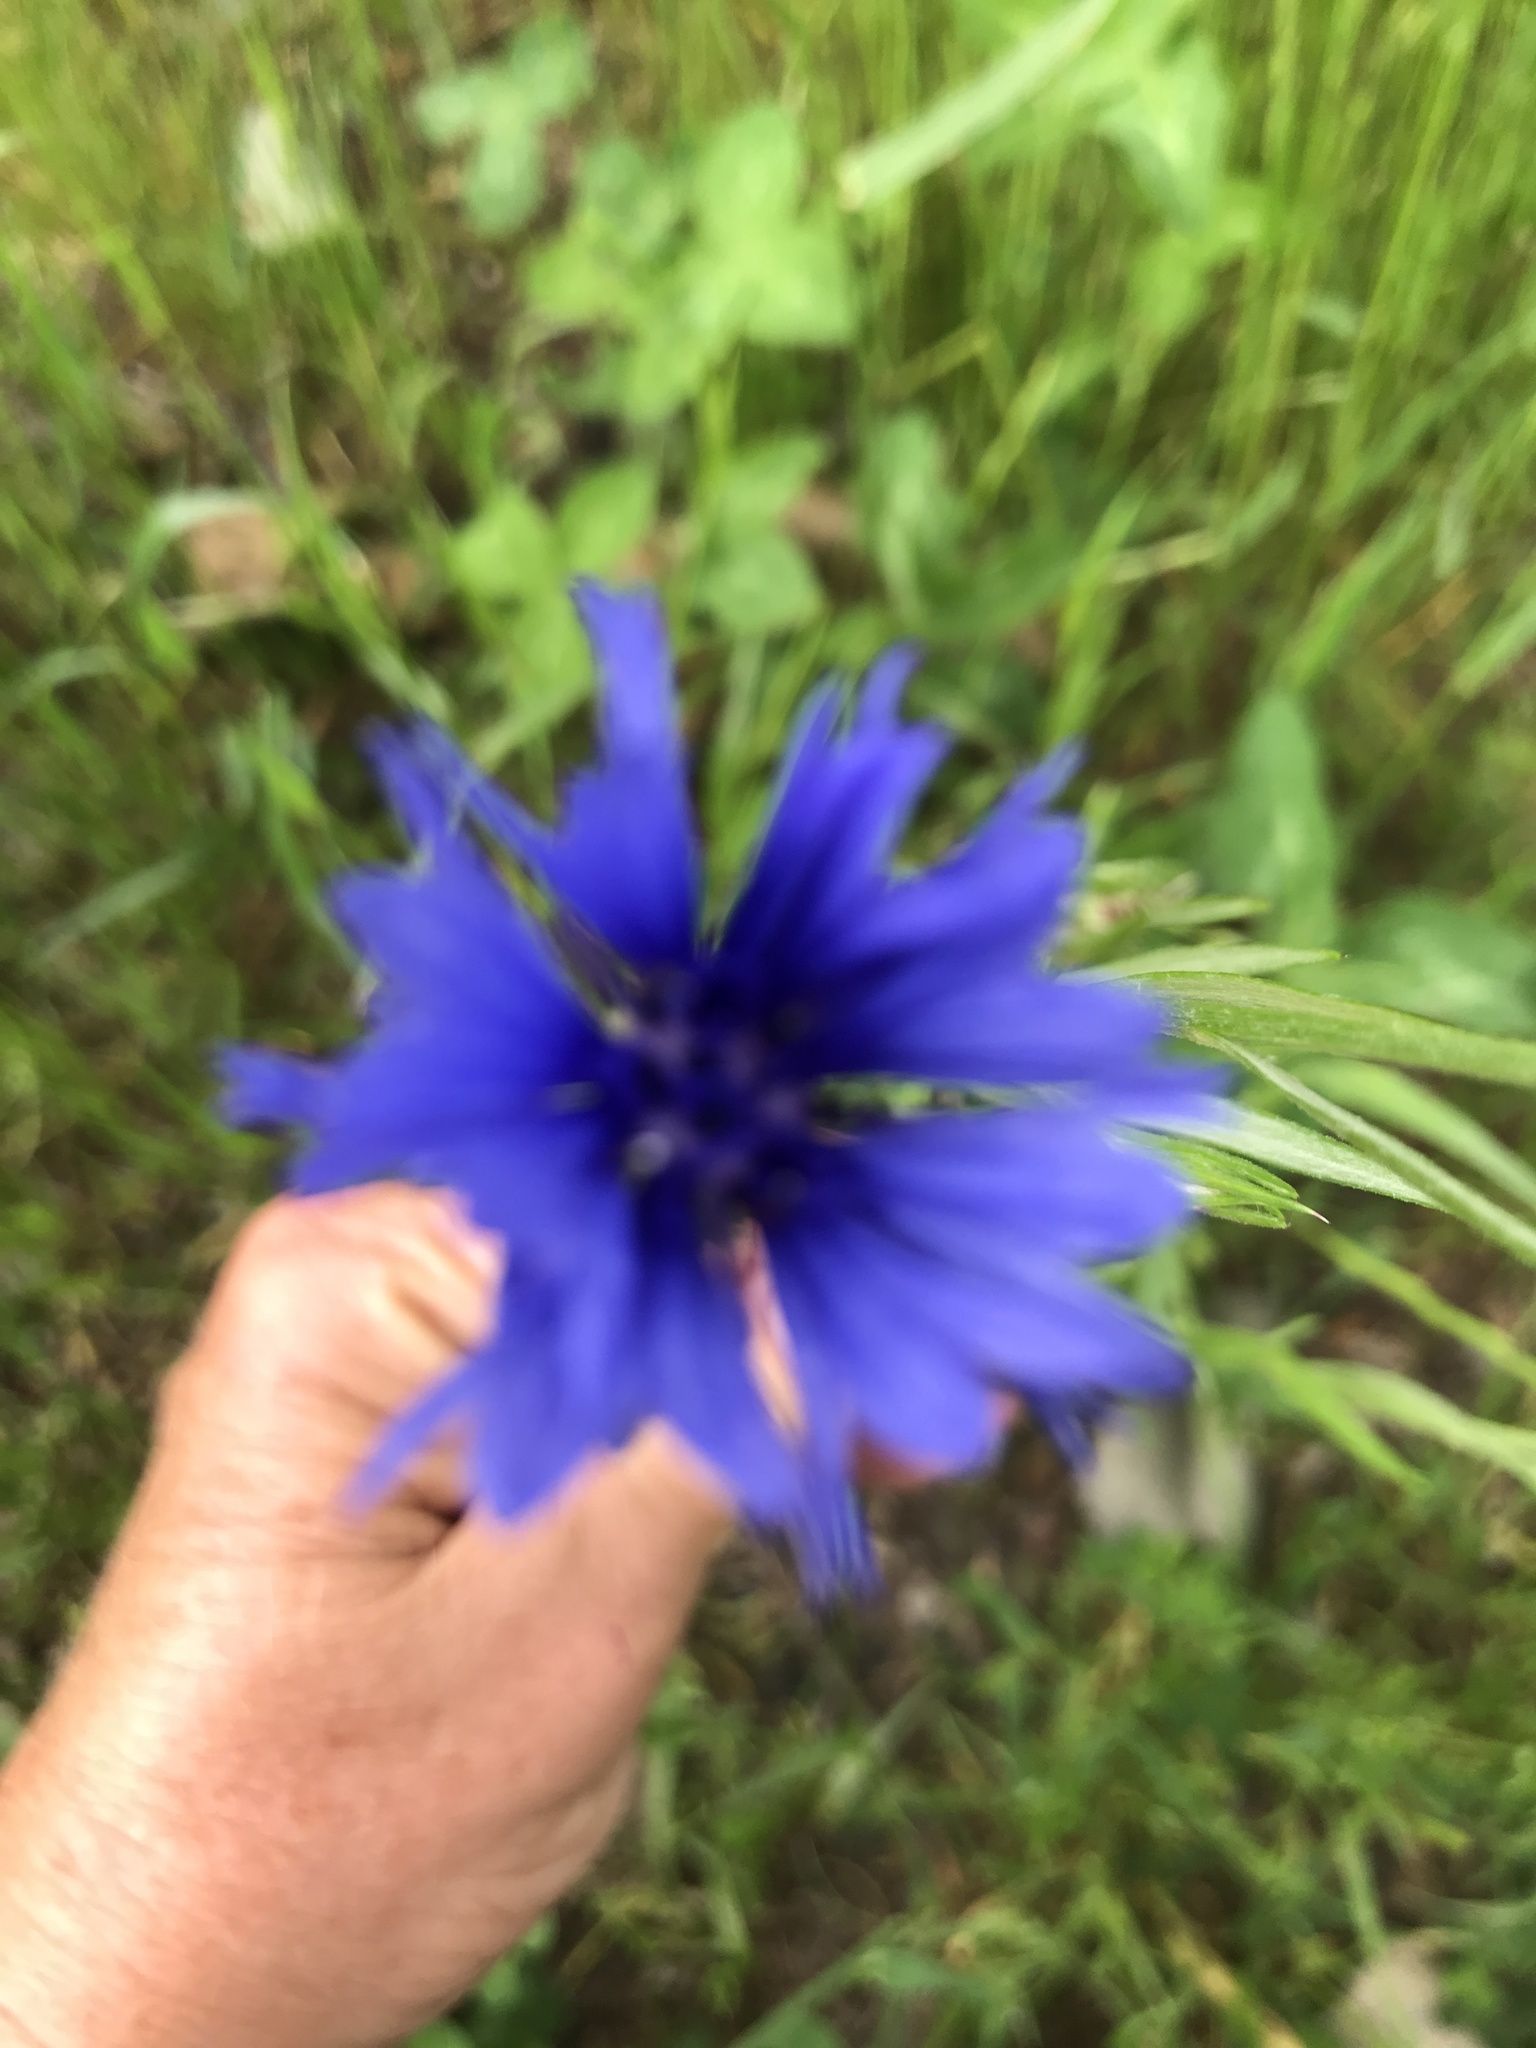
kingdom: Plantae
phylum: Tracheophyta
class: Magnoliopsida
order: Asterales
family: Asteraceae
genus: Centaurea
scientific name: Centaurea cyanus
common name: Cornflower
